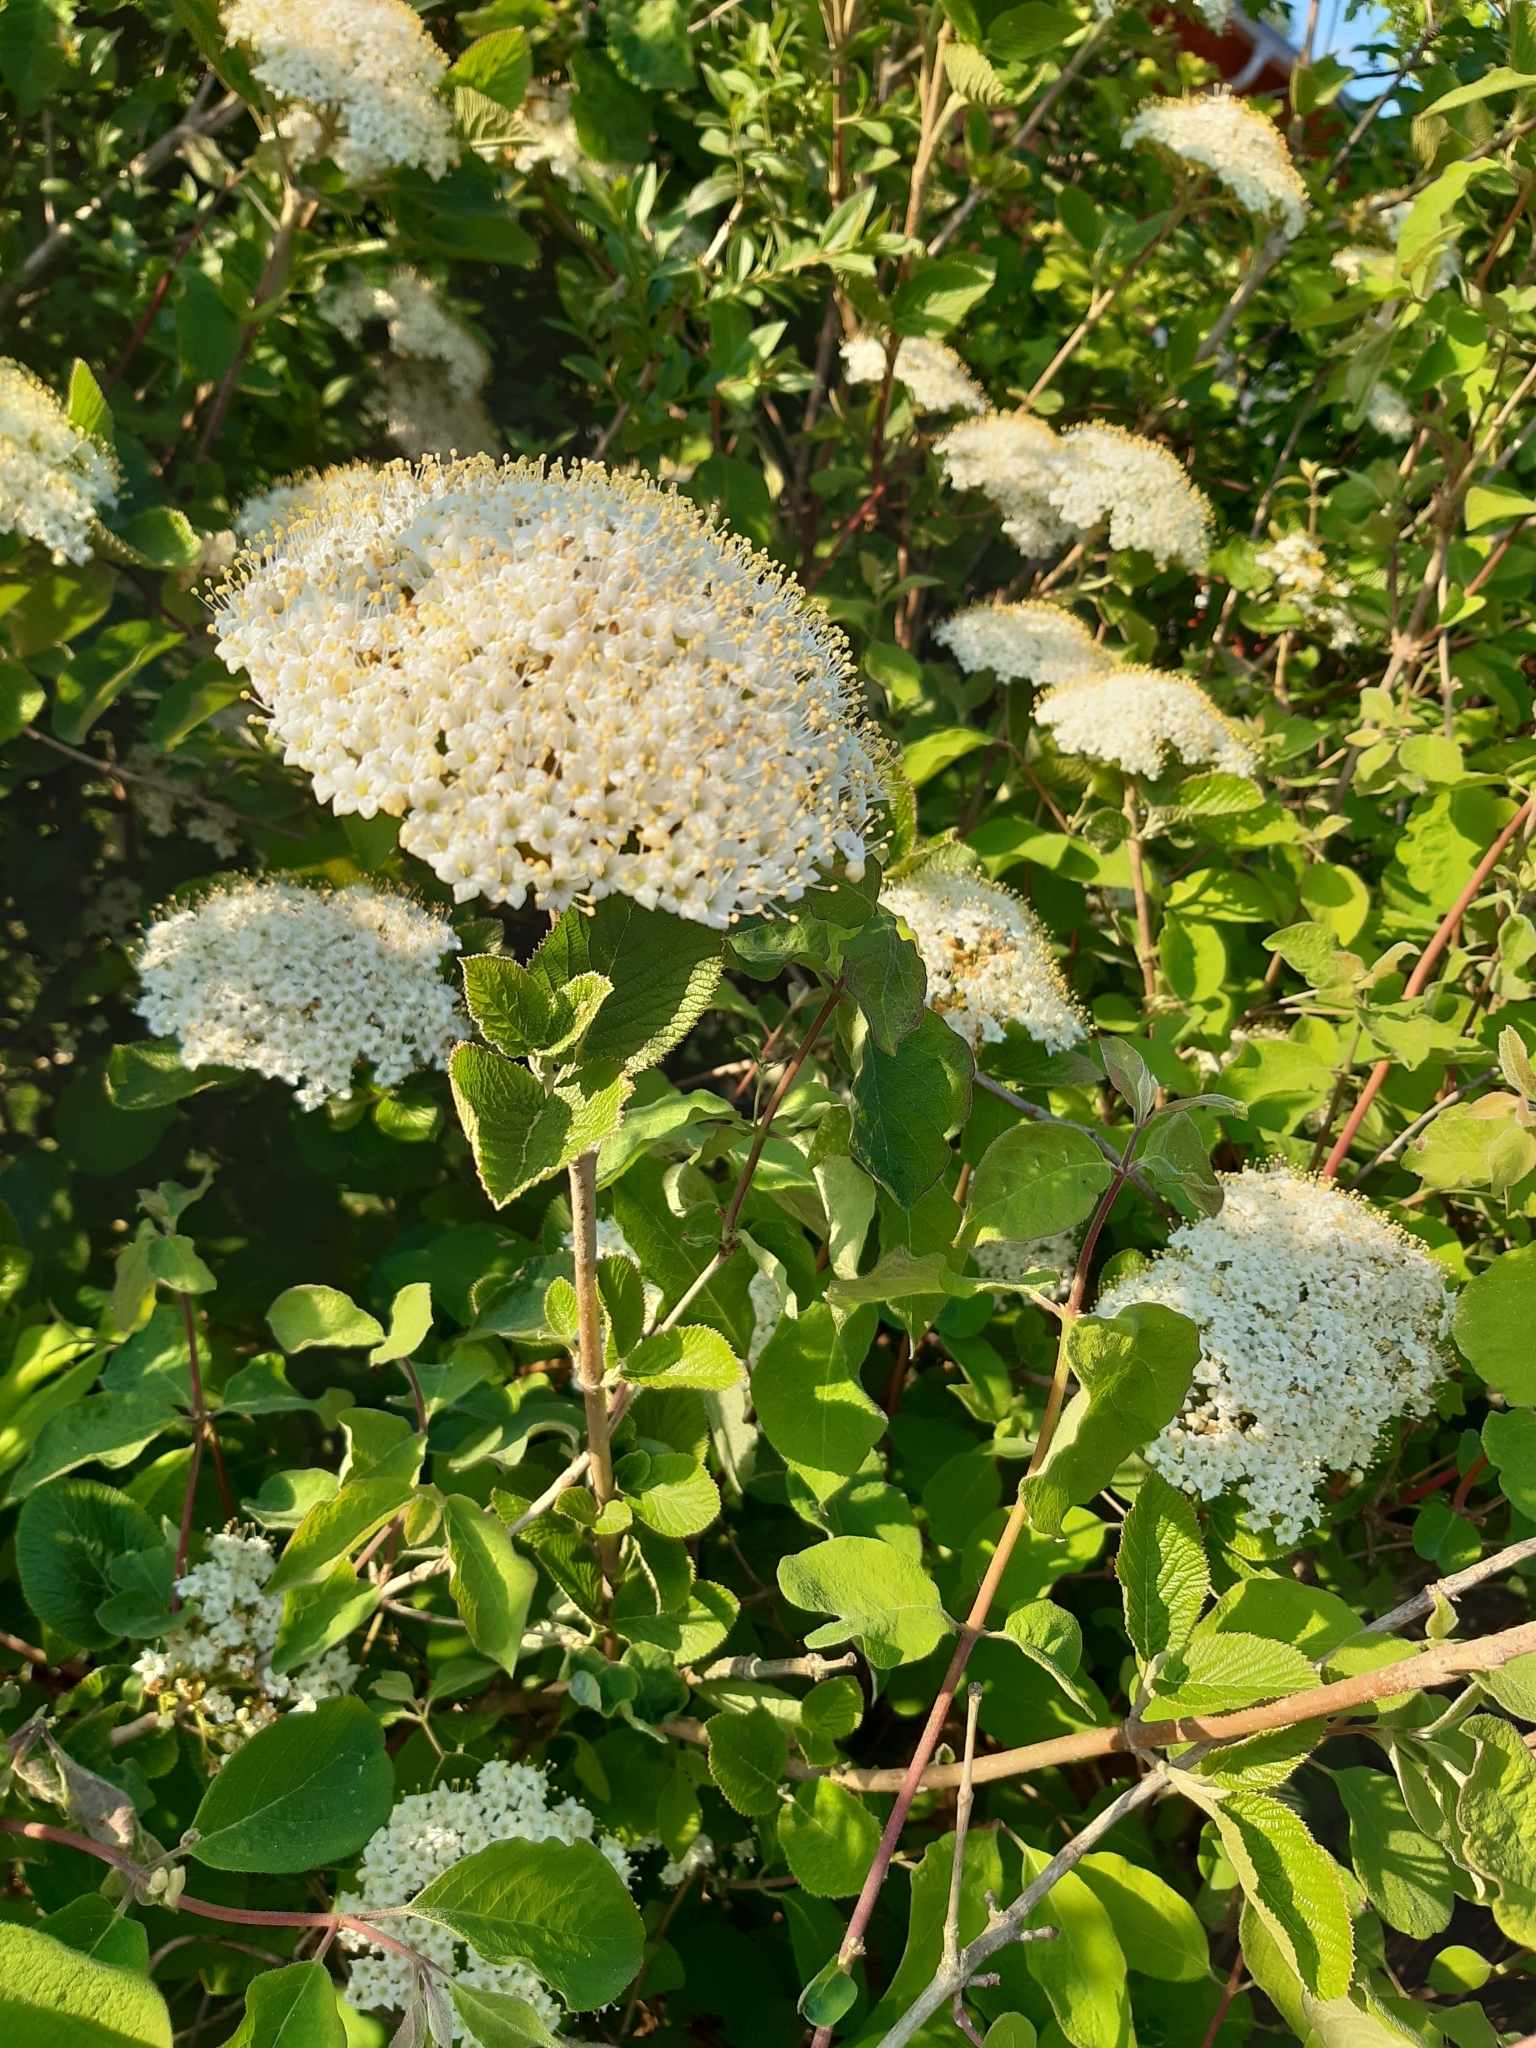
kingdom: Plantae
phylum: Tracheophyta
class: Magnoliopsida
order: Dipsacales
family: Viburnaceae
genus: Viburnum
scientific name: Viburnum lantana
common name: Wayfaring tree
